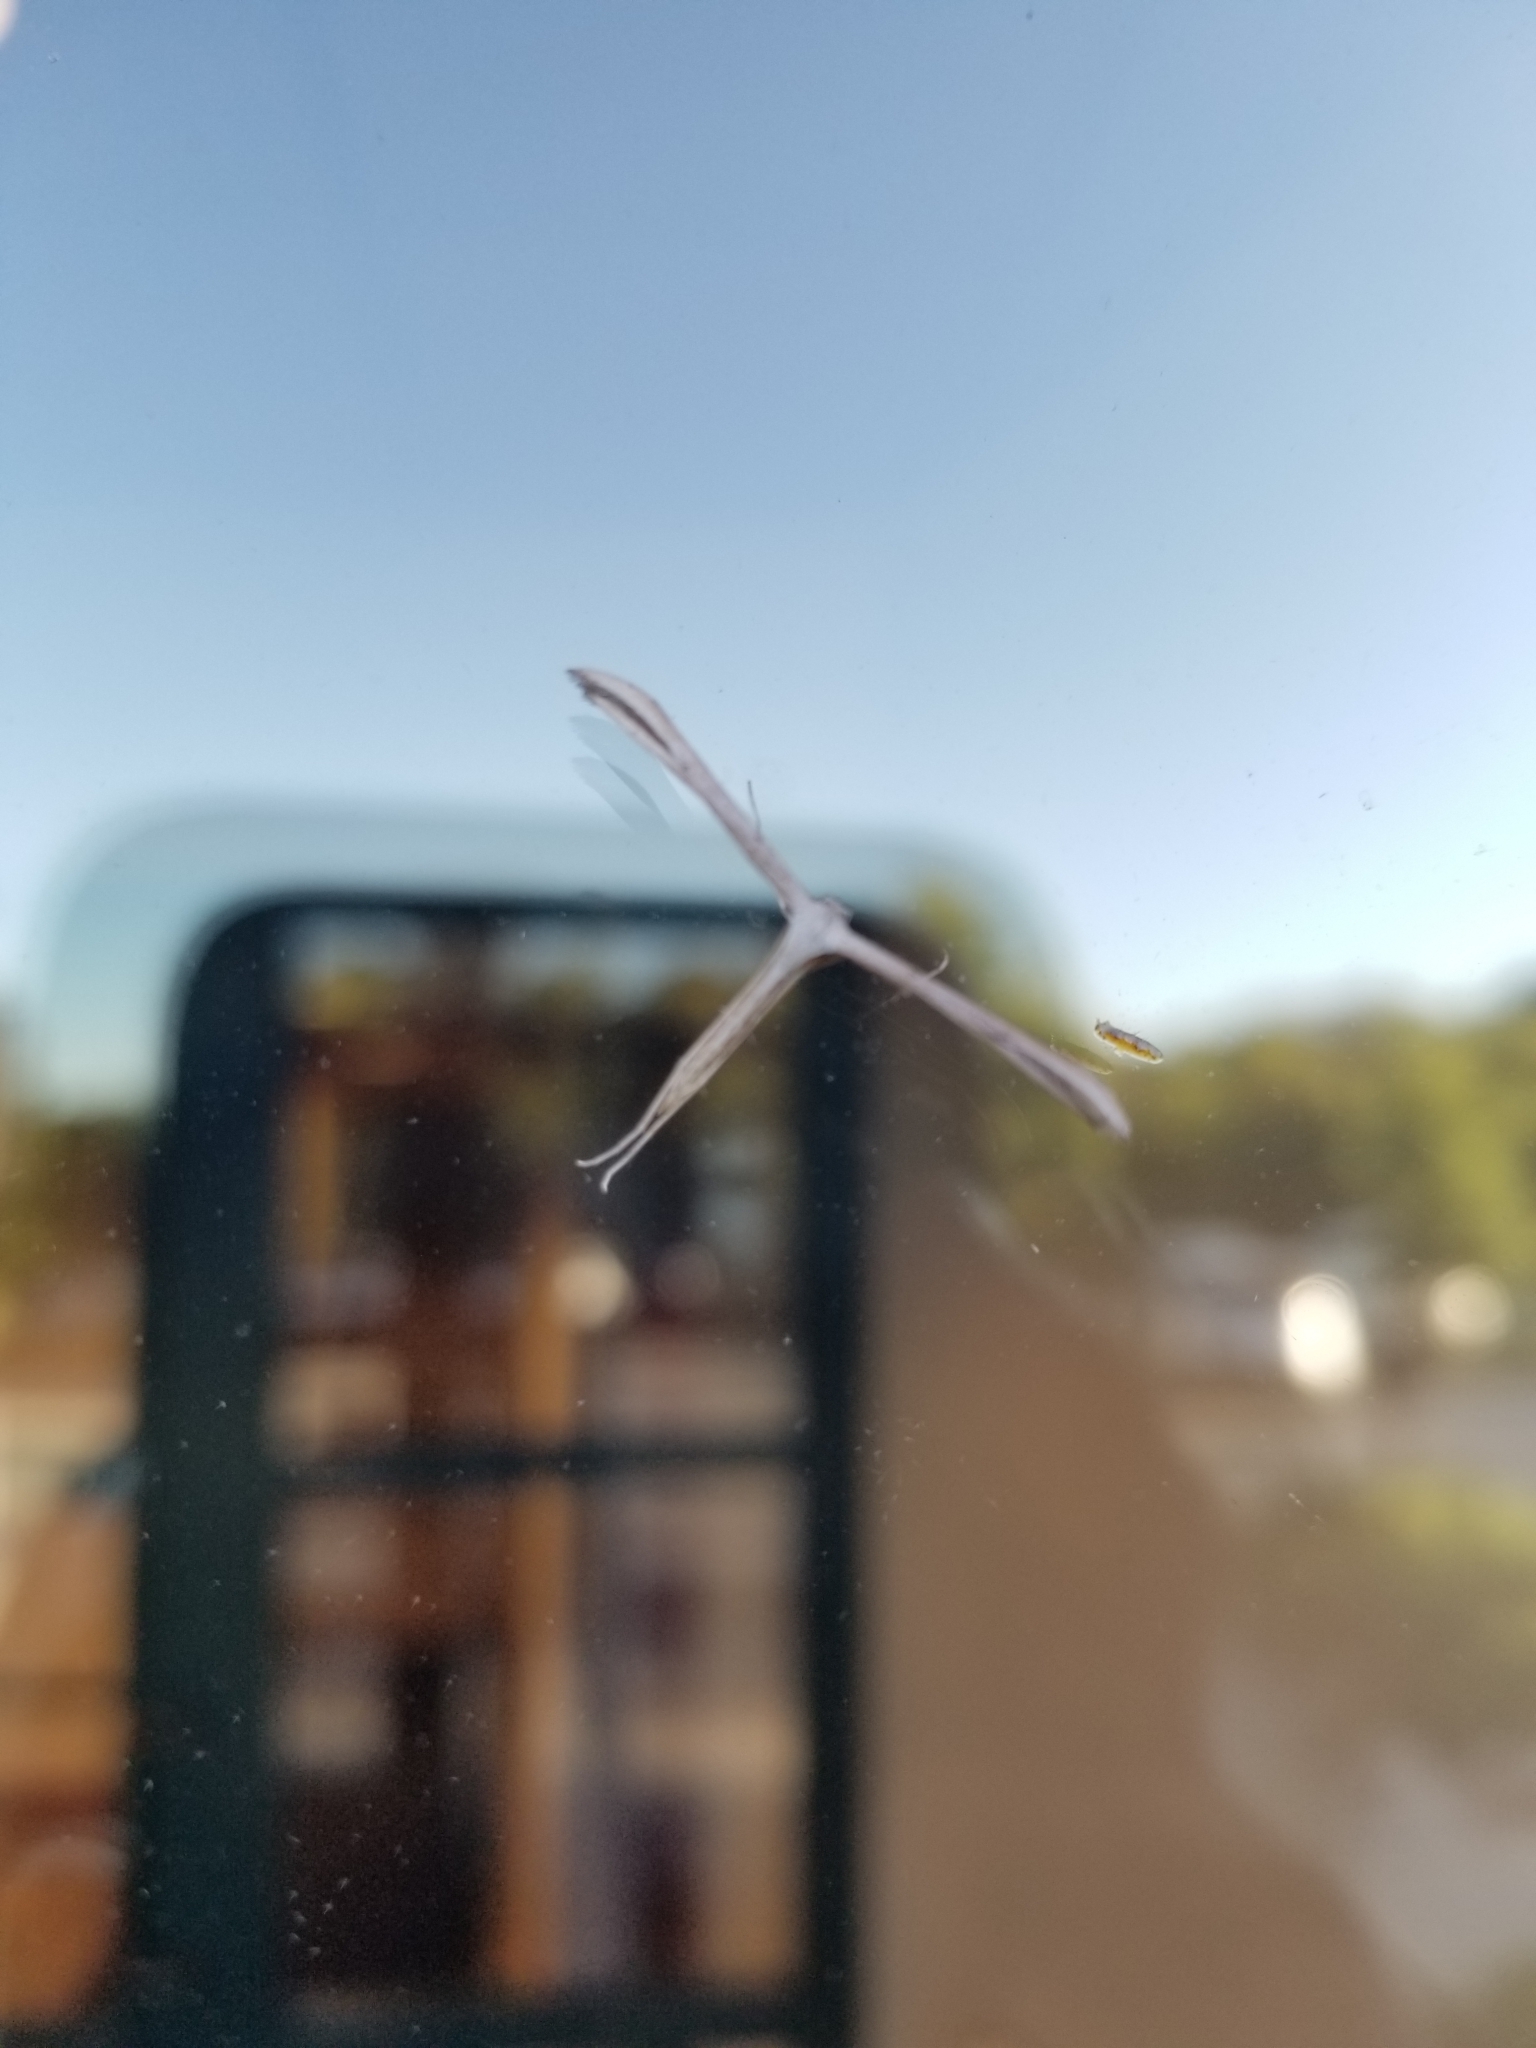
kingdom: Animalia
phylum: Arthropoda
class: Insecta
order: Lepidoptera
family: Pterophoridae
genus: Emmelina
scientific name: Emmelina monodactyla
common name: Common plume
